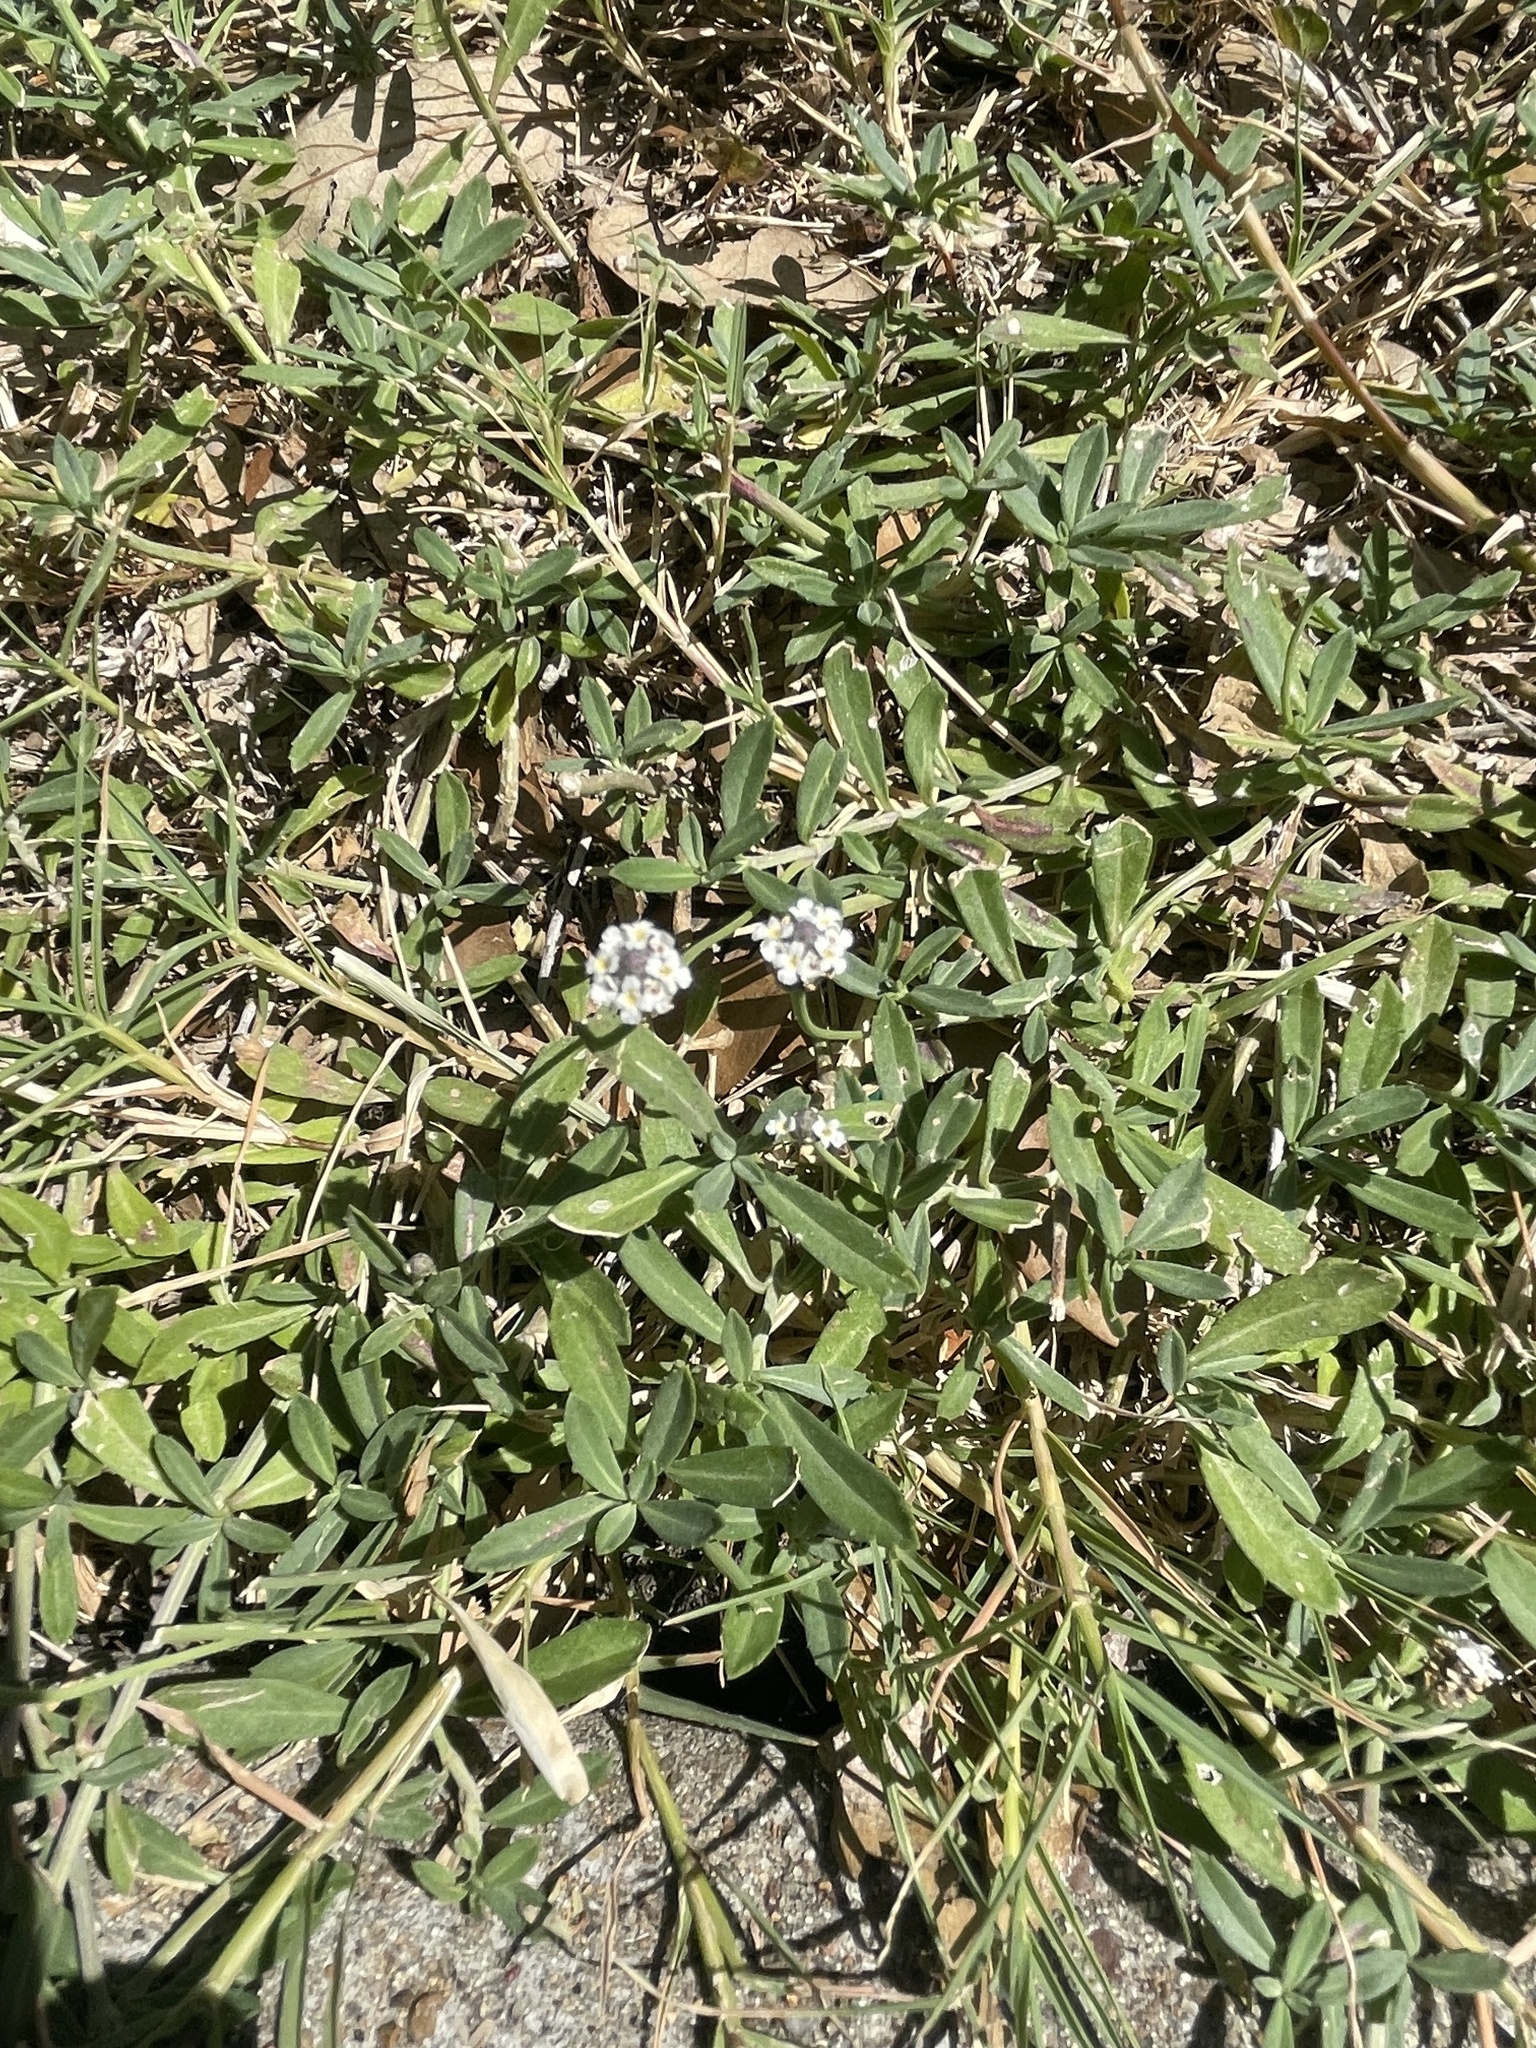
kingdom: Plantae
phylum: Tracheophyta
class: Magnoliopsida
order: Lamiales
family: Verbenaceae
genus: Phyla
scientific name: Phyla nodiflora
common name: Frogfruit
